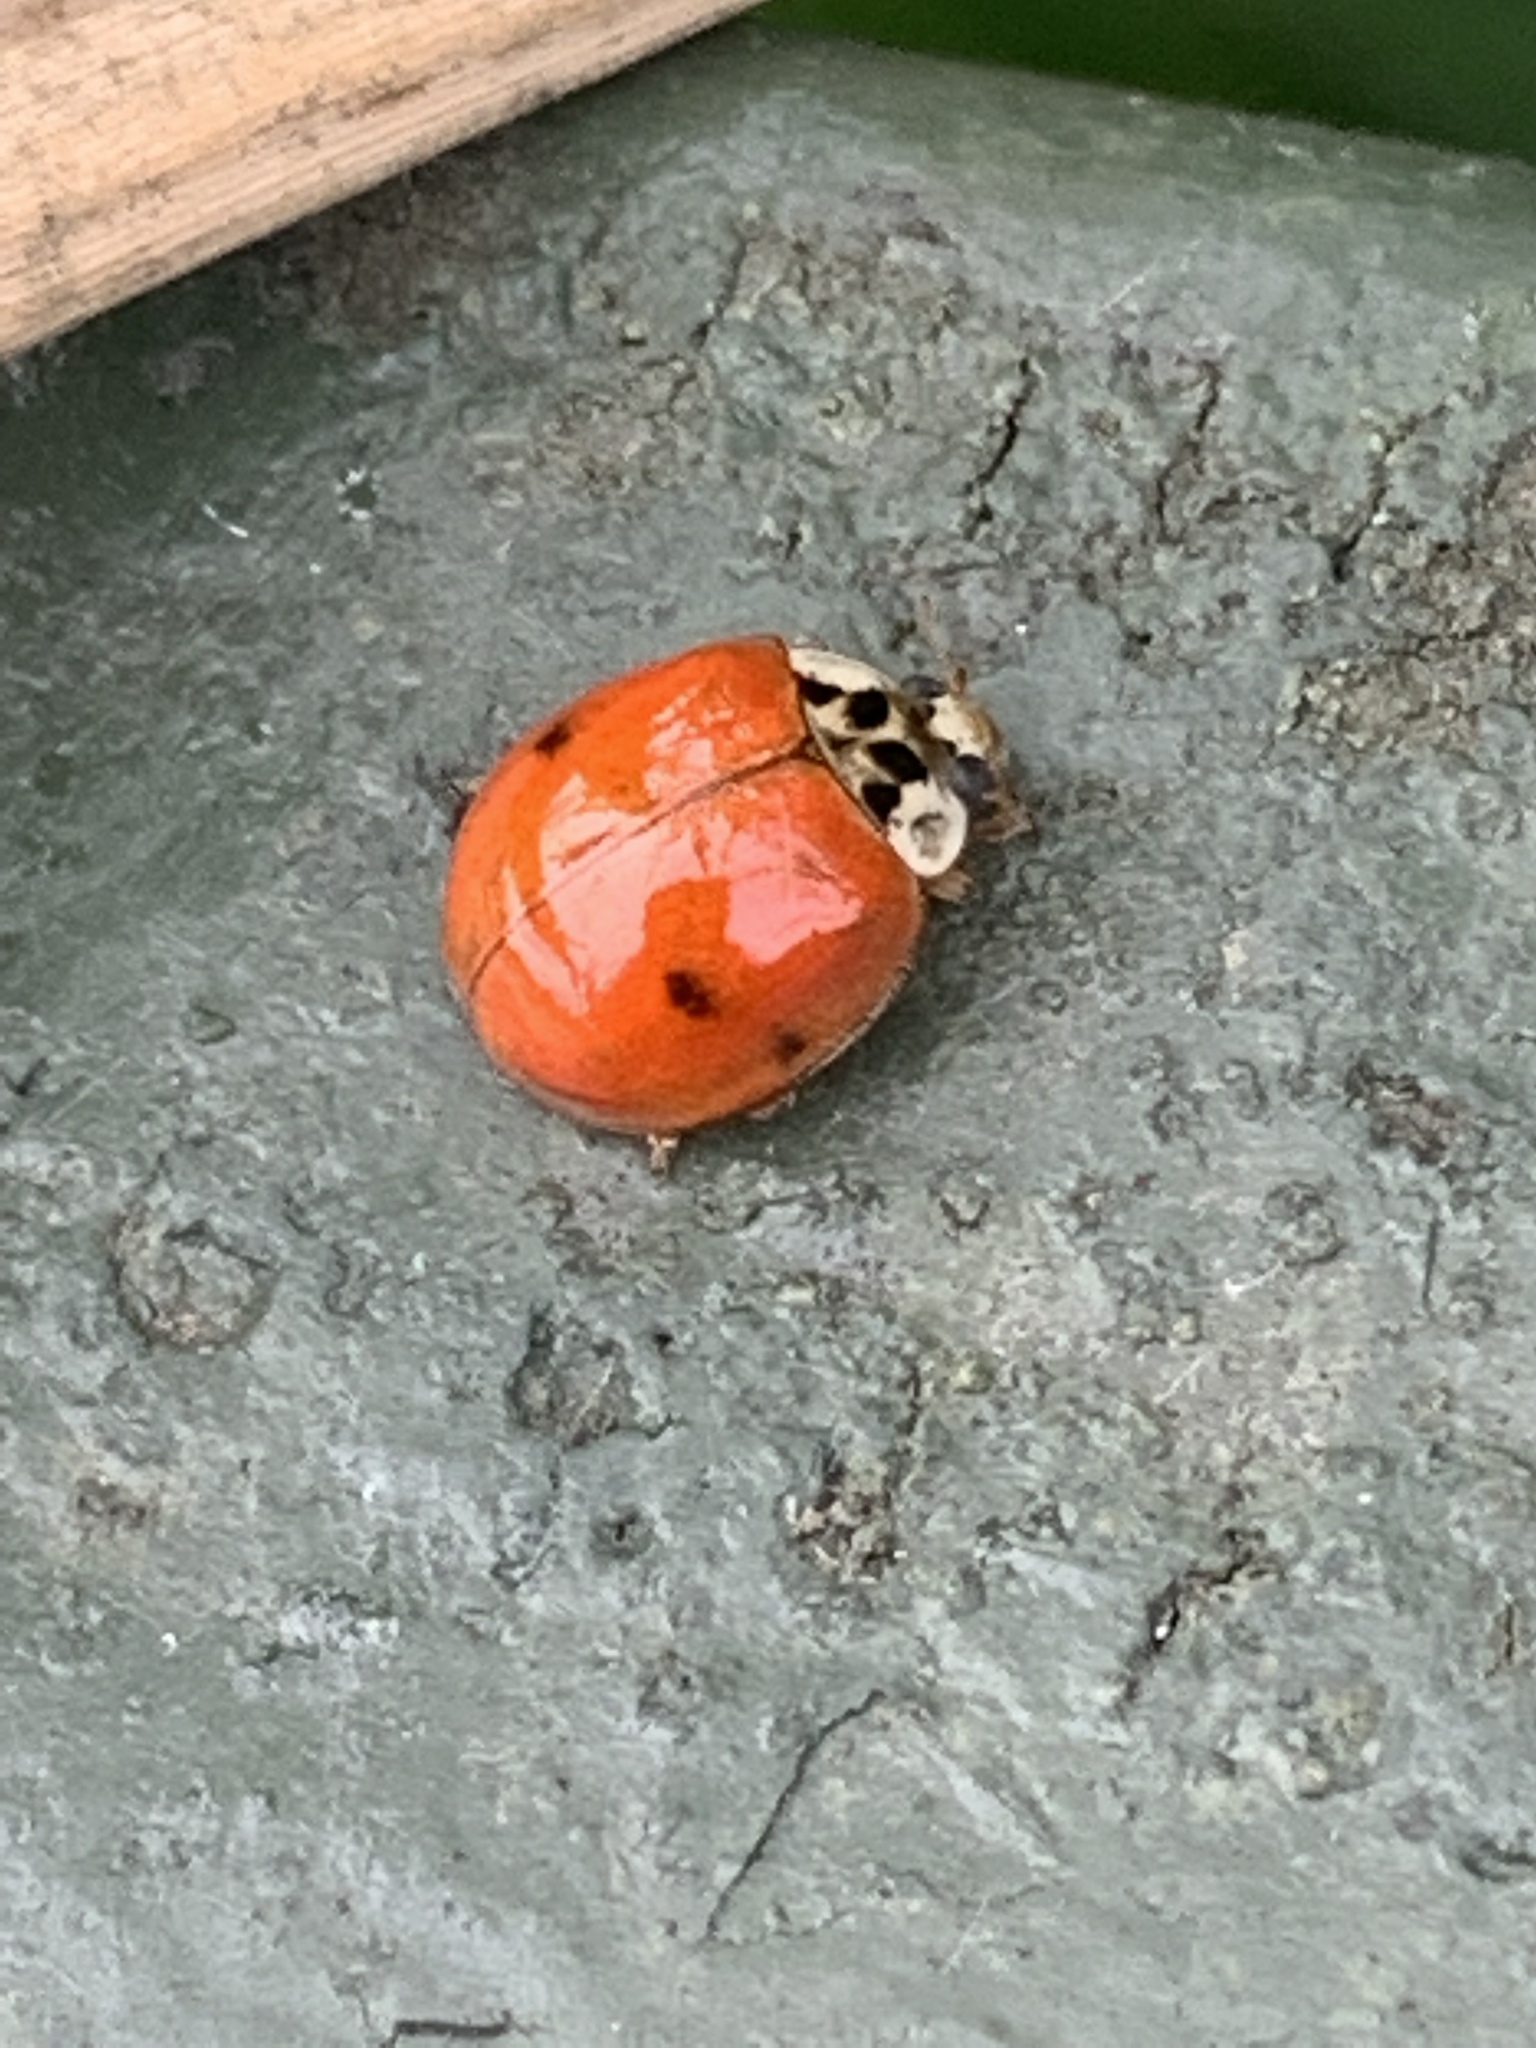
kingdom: Animalia
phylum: Arthropoda
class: Insecta
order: Coleoptera
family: Coccinellidae
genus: Harmonia
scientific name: Harmonia axyridis
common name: Harlequin ladybird
